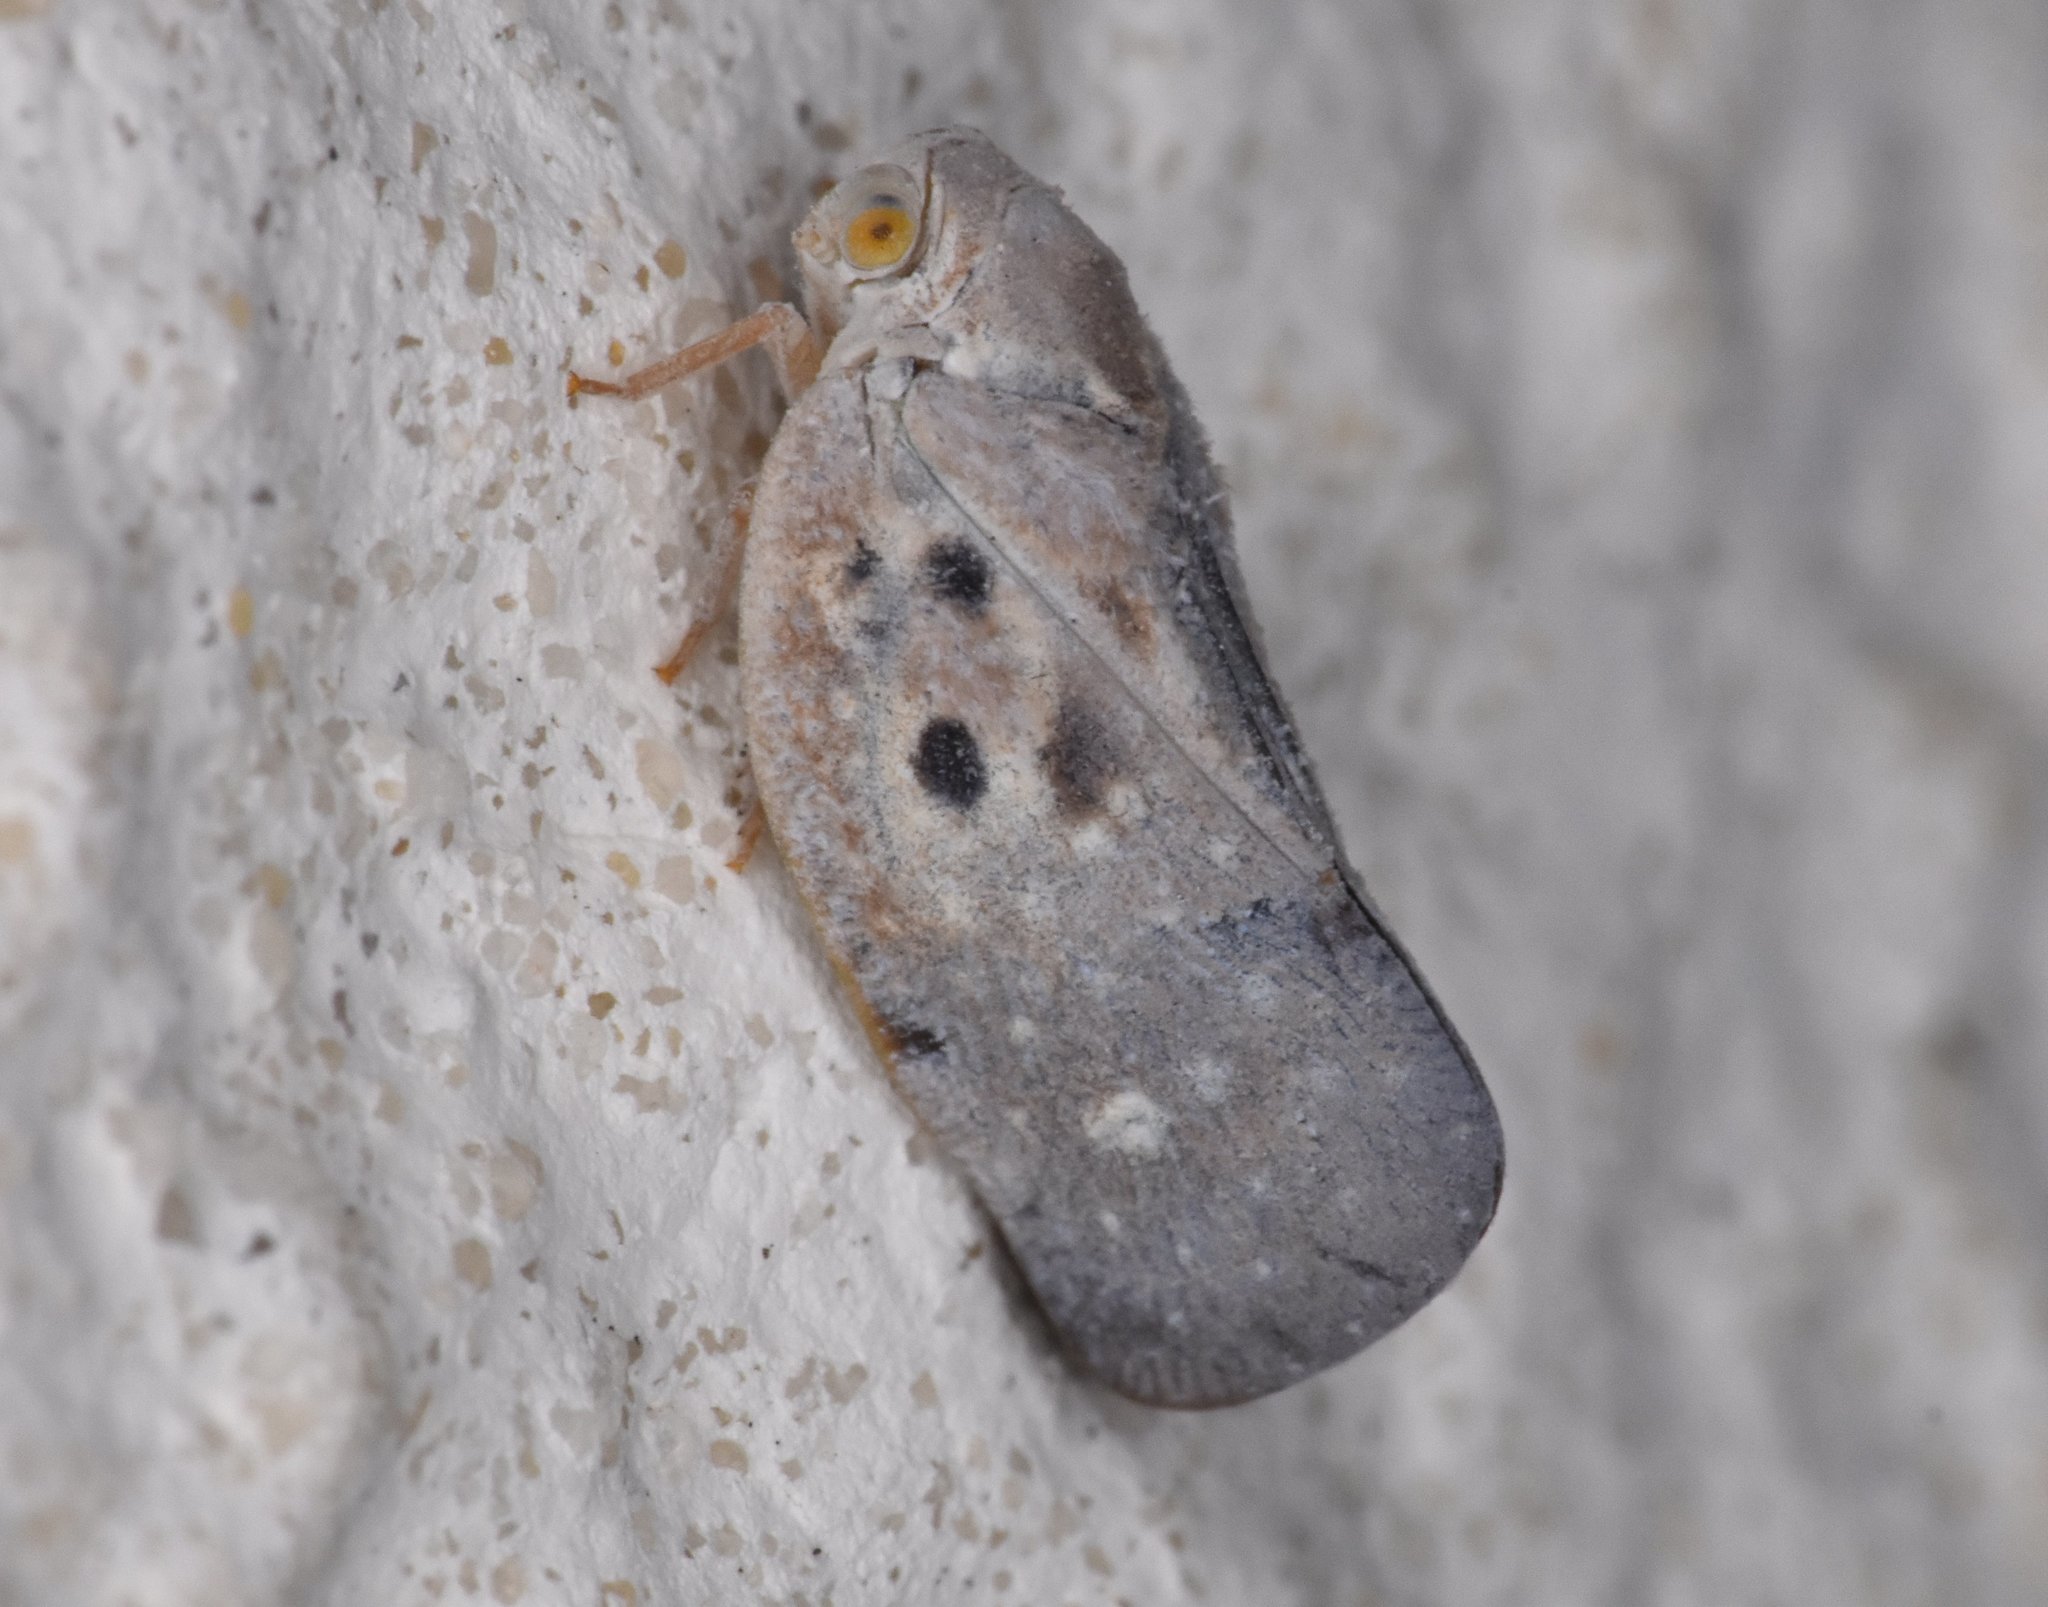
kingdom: Animalia
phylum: Arthropoda
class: Insecta
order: Hemiptera
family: Flatidae
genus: Metcalfa
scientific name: Metcalfa pruinosa
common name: Citrus flatid planthopper
